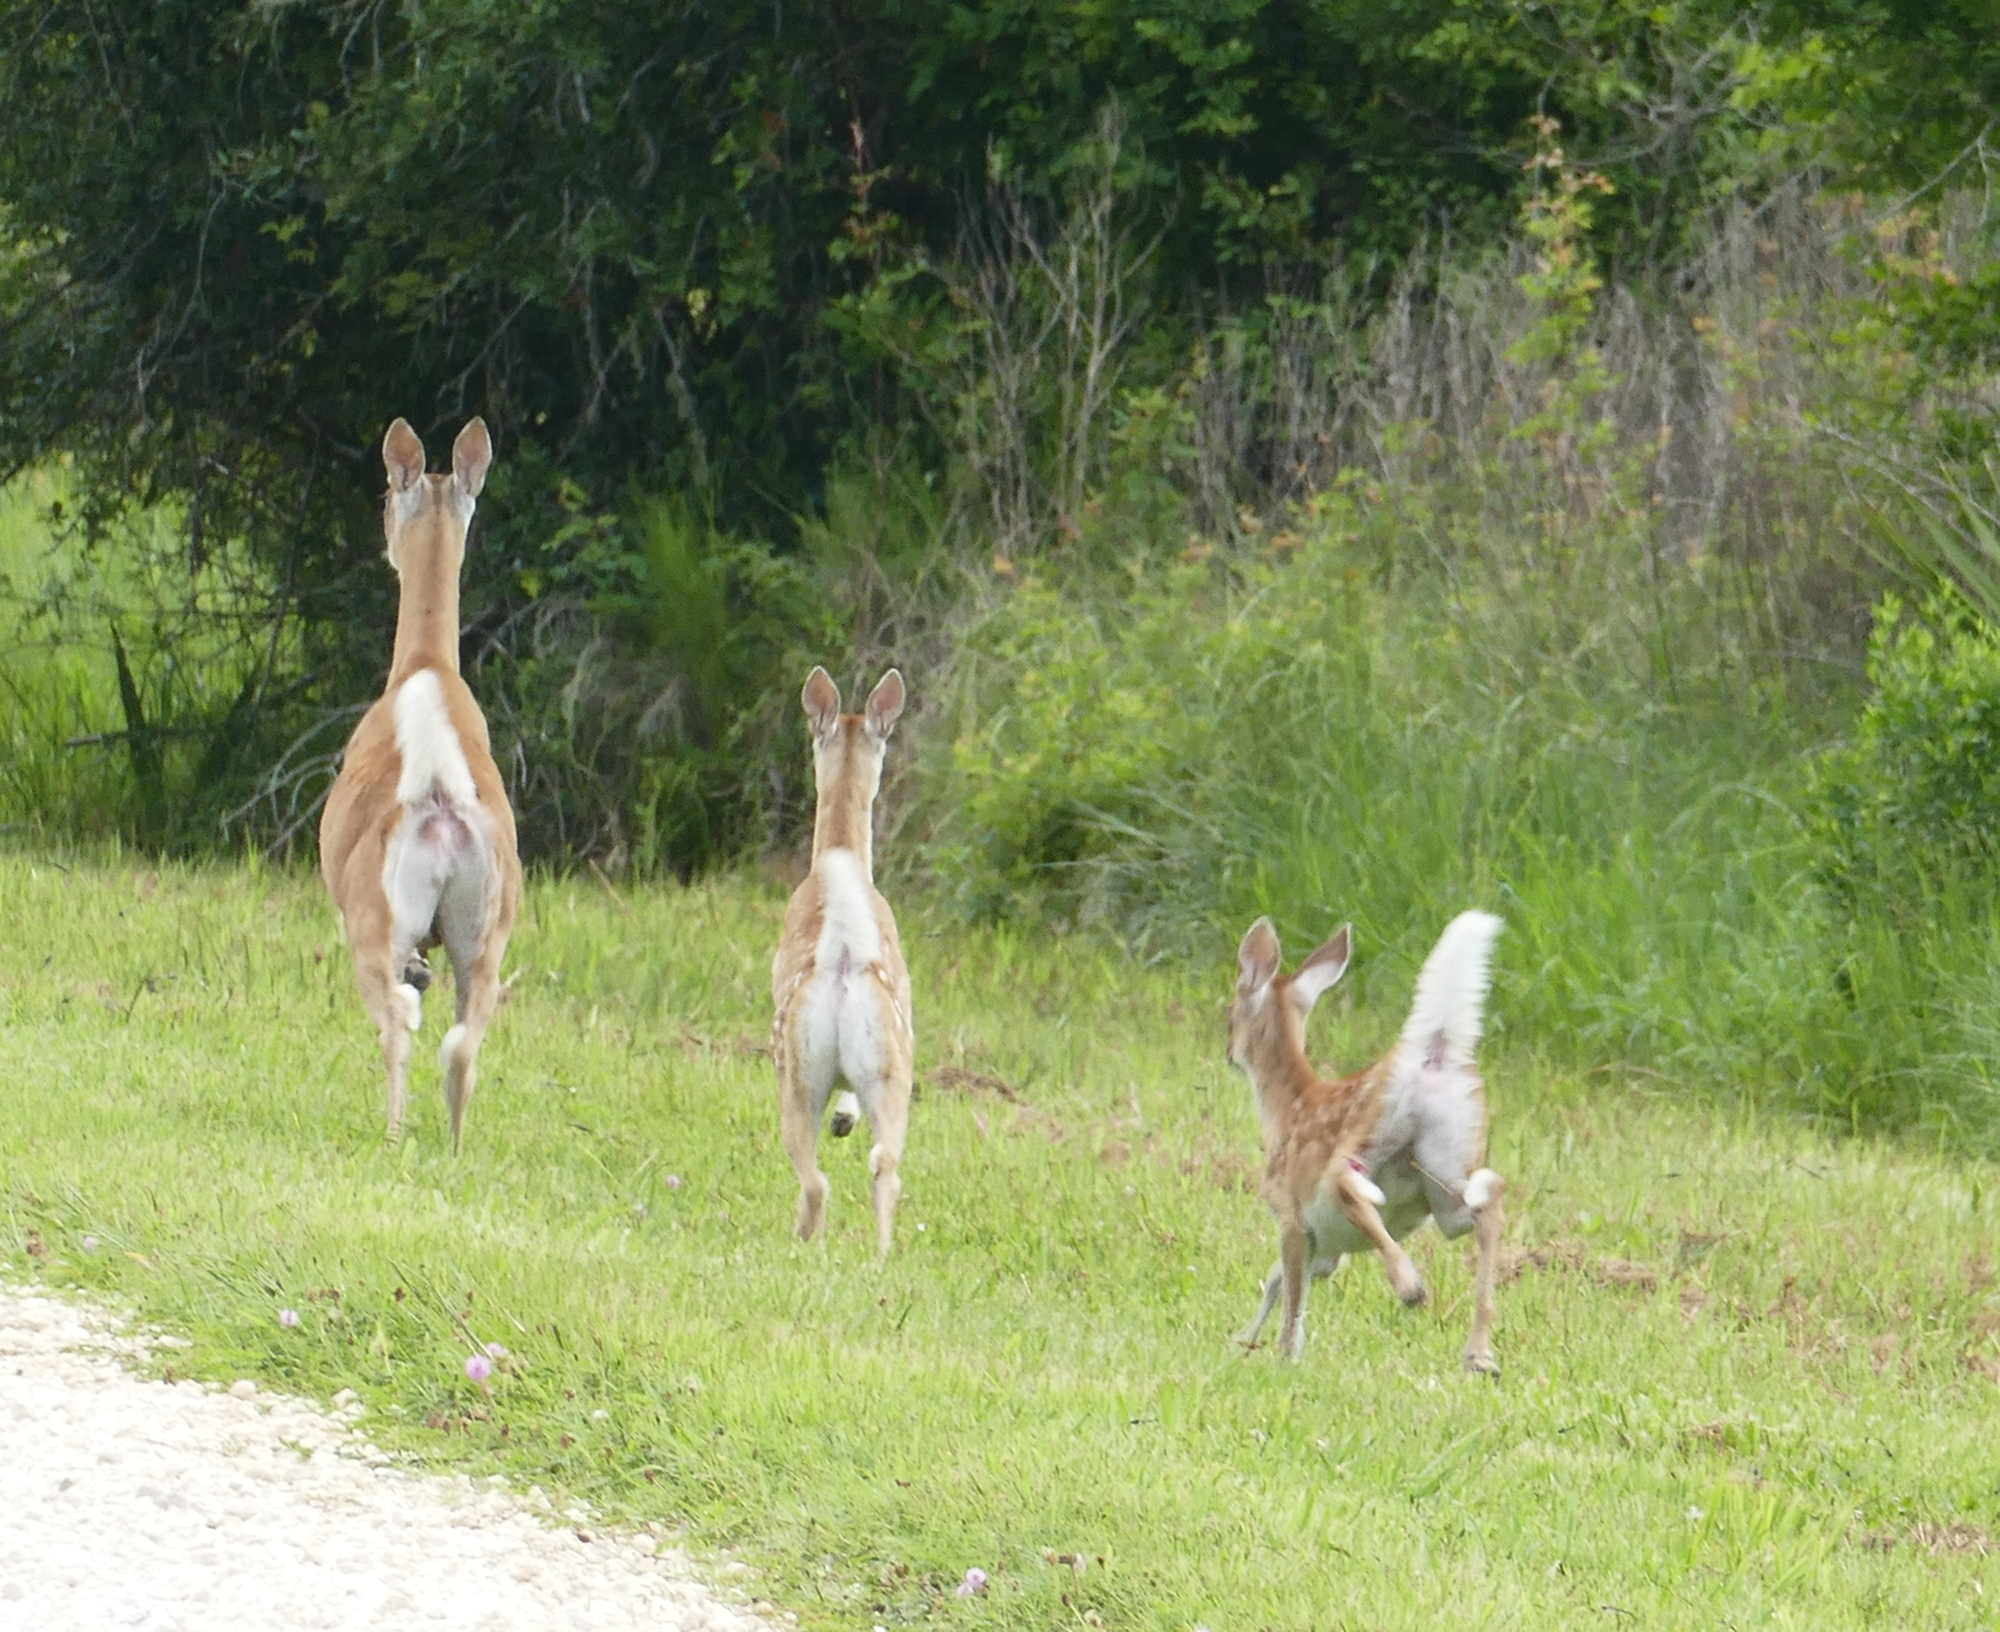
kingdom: Animalia
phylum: Chordata
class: Mammalia
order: Artiodactyla
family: Cervidae
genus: Odocoileus
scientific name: Odocoileus virginianus
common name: White-tailed deer
